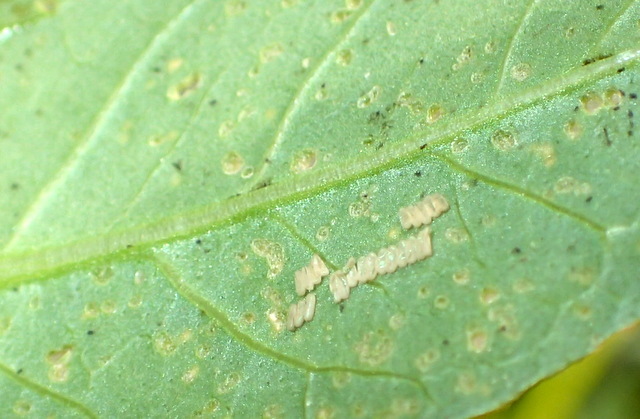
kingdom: Animalia
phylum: Arthropoda
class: Insecta
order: Coleoptera
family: Chrysomelidae
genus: Agasicles
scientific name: Agasicles hygrophila
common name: Alligatorweed flea beetle
